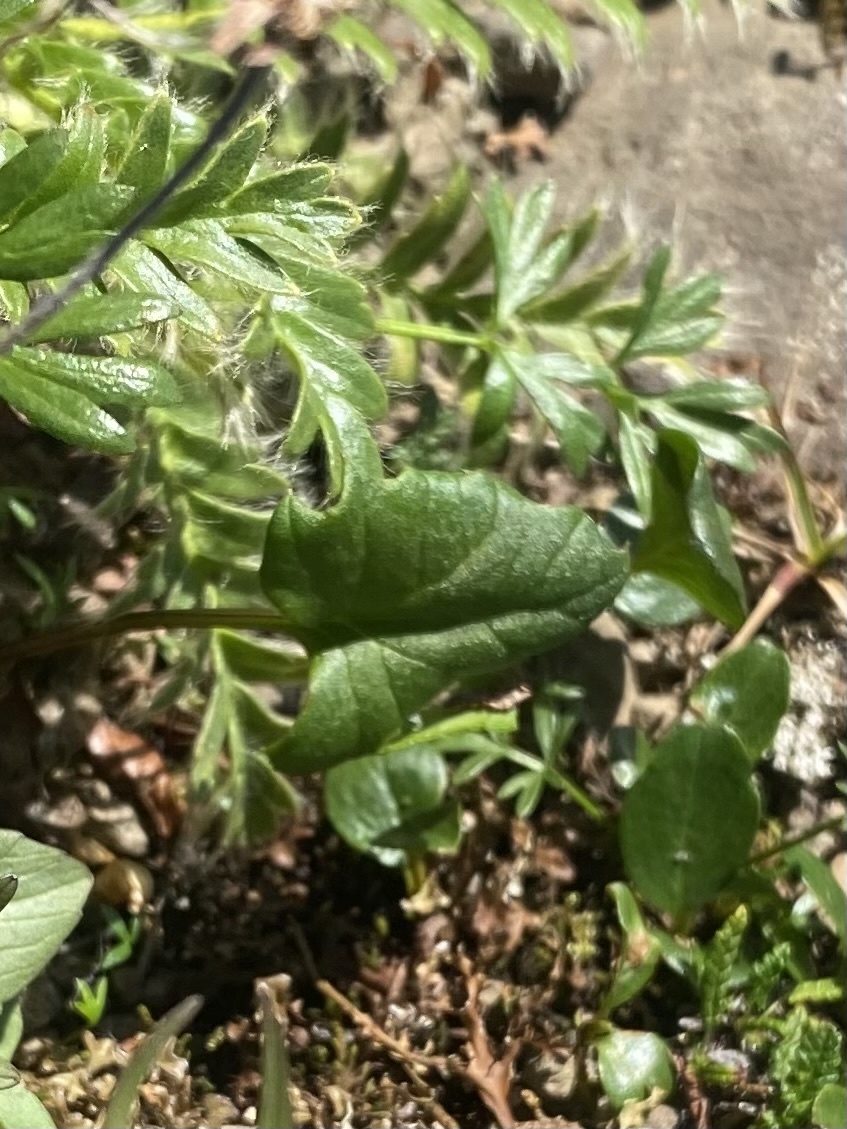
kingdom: Plantae
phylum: Tracheophyta
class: Magnoliopsida
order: Asterales
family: Asteraceae
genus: Endocellion
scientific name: Endocellion glaciale
